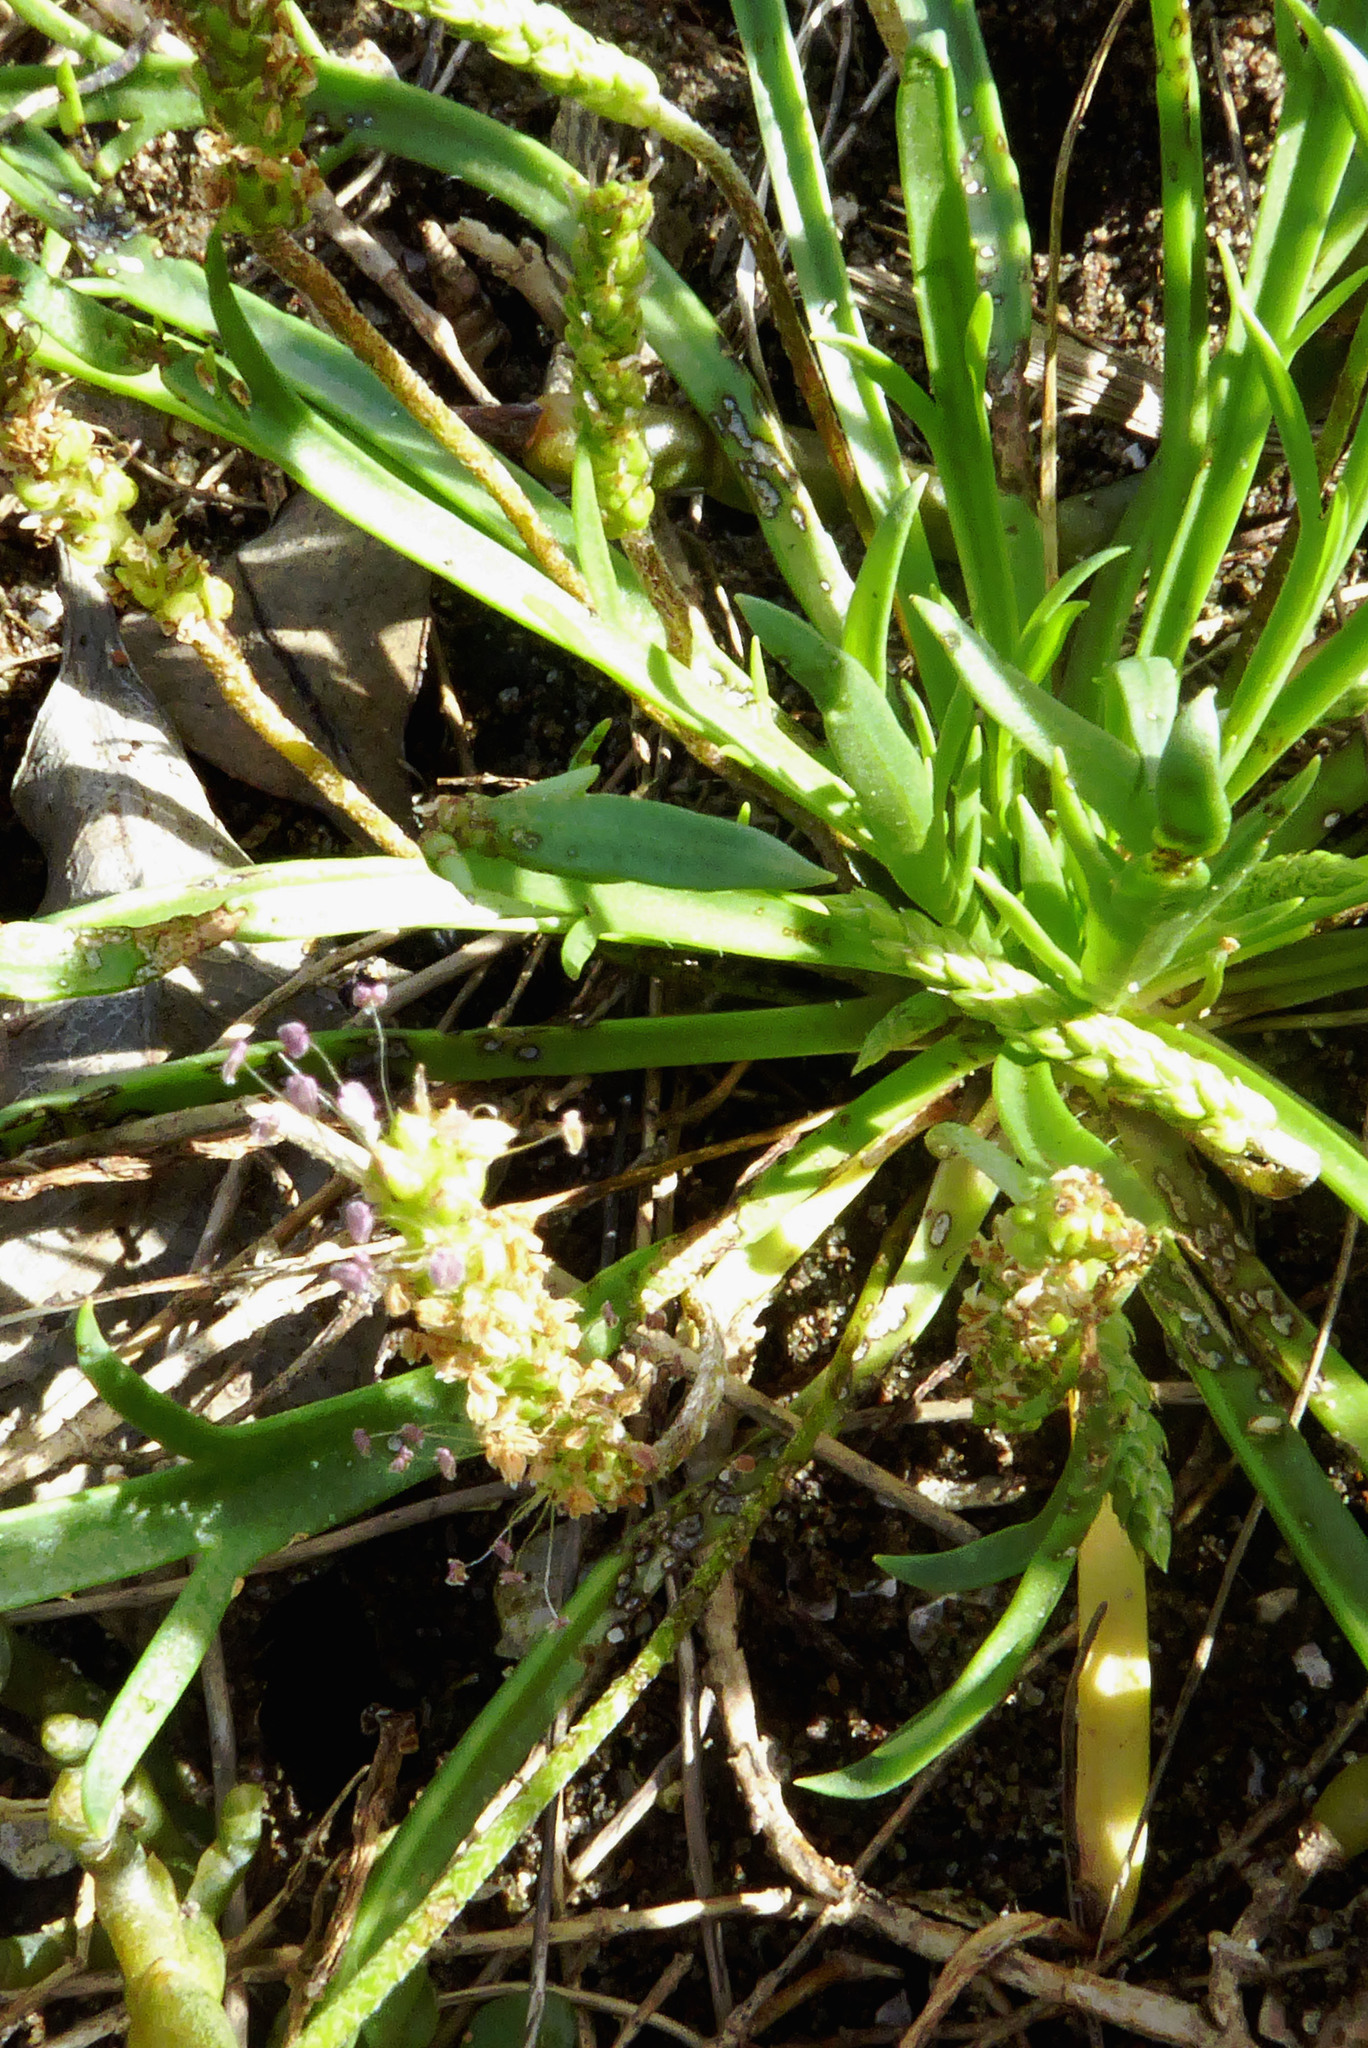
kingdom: Plantae
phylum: Tracheophyta
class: Magnoliopsida
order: Lamiales
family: Plantaginaceae
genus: Plantago
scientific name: Plantago coronopus
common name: Buck's-horn plantain
